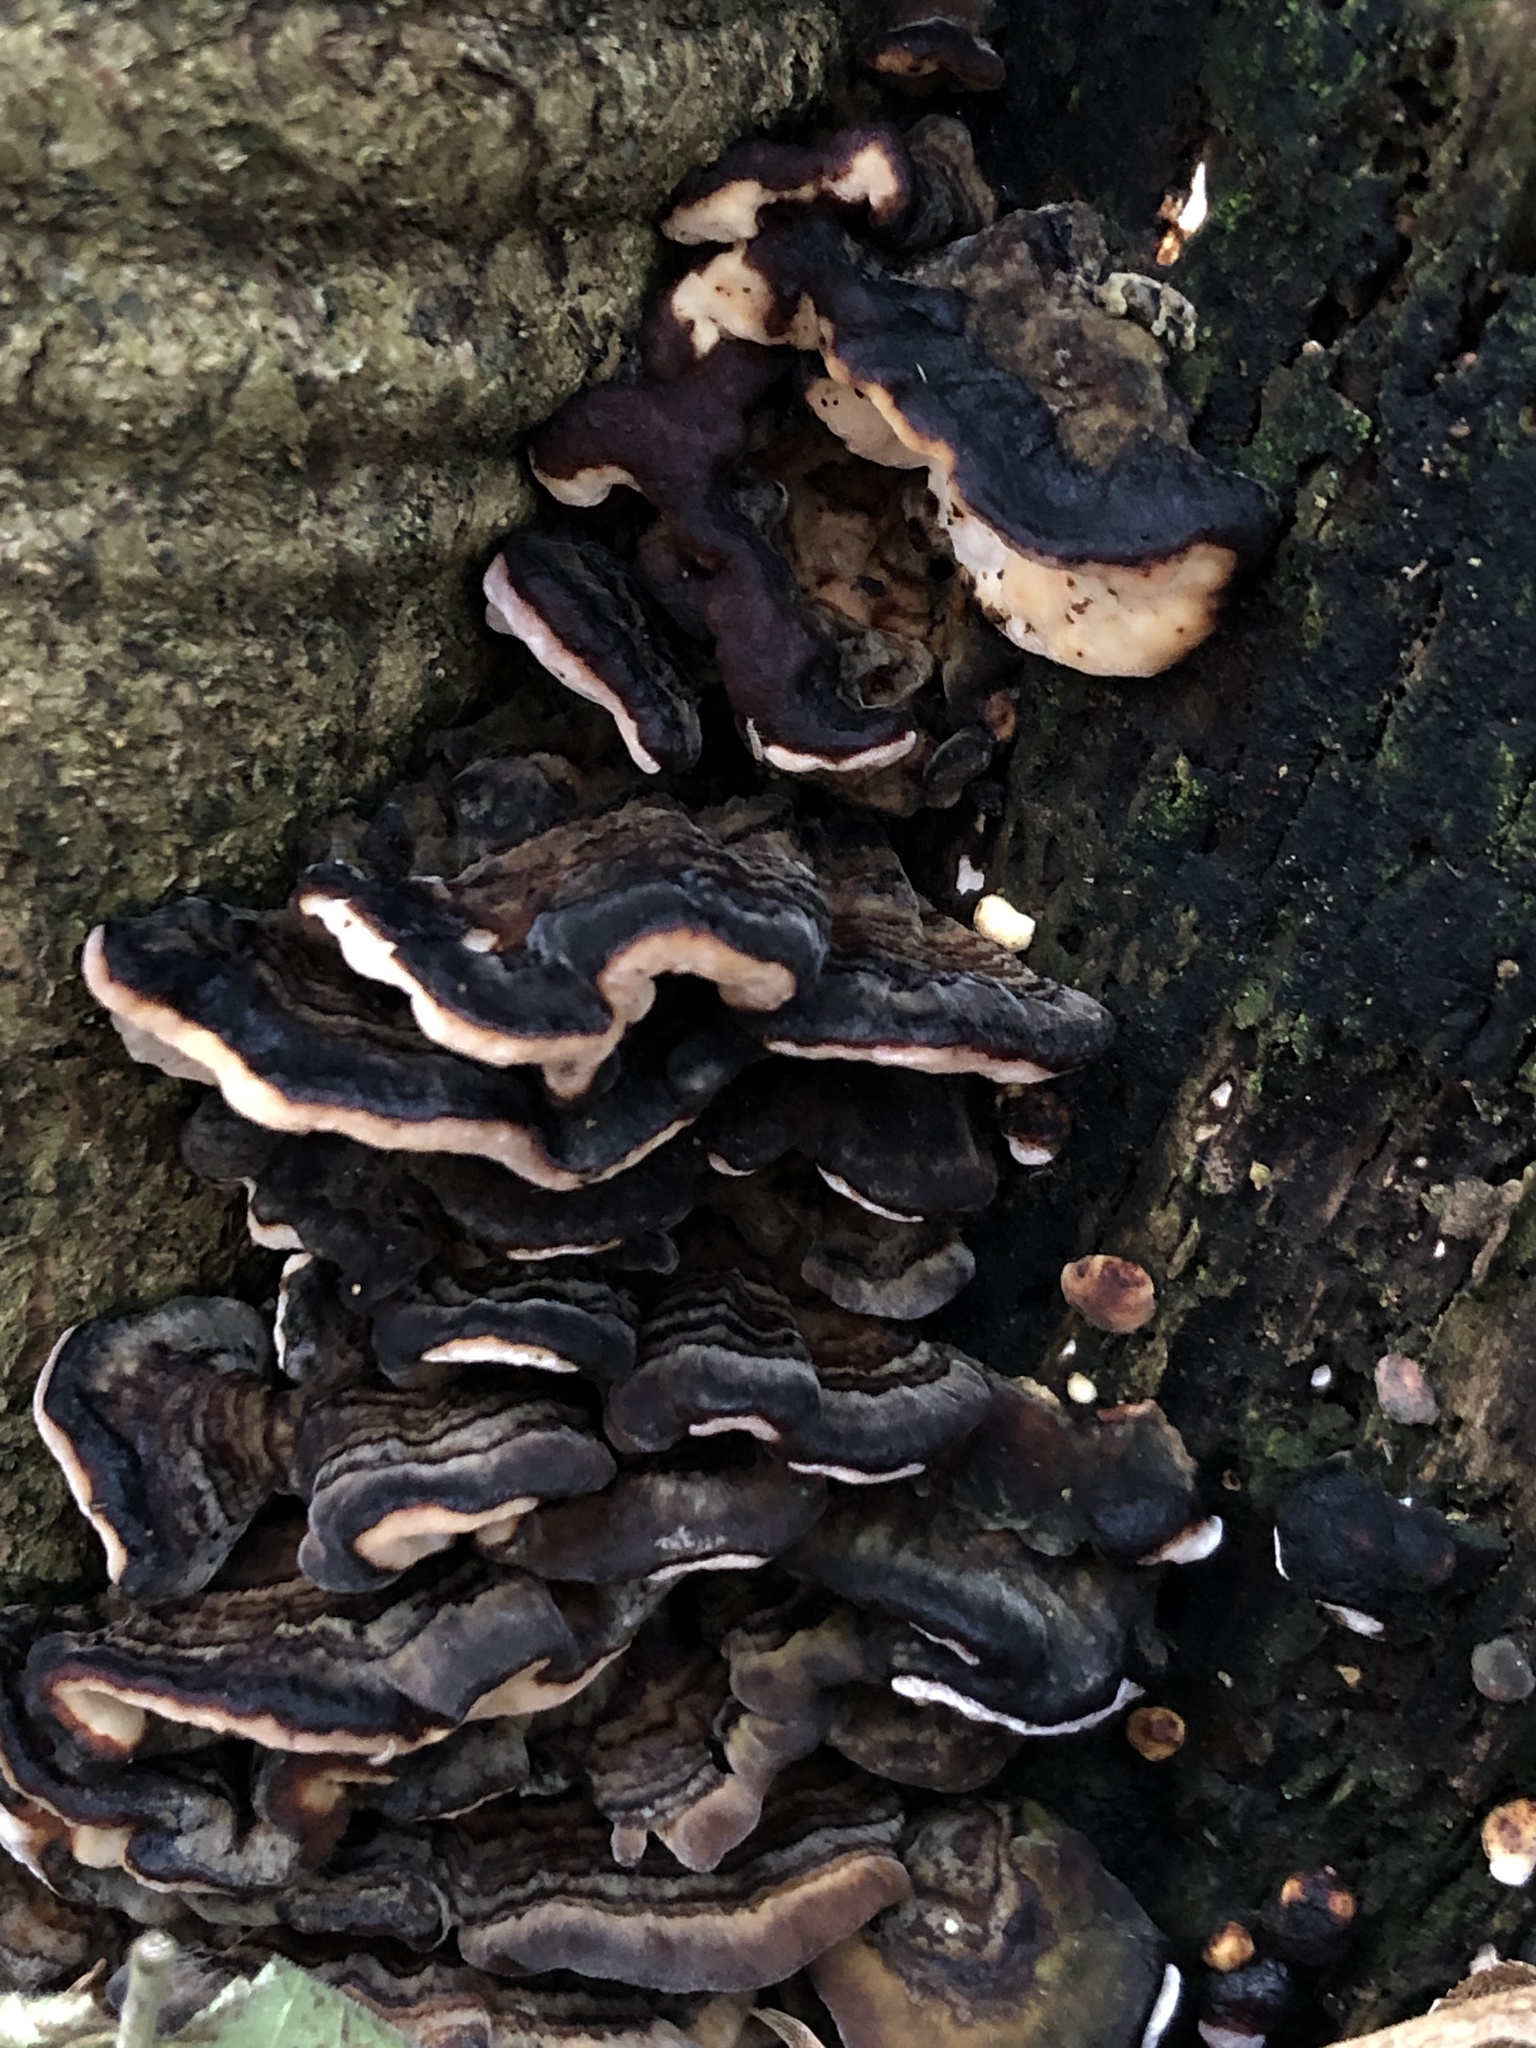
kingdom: Fungi
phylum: Basidiomycota
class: Agaricomycetes
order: Polyporales
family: Polyporaceae
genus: Trametes
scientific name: Trametes versicolor
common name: Turkeytail
